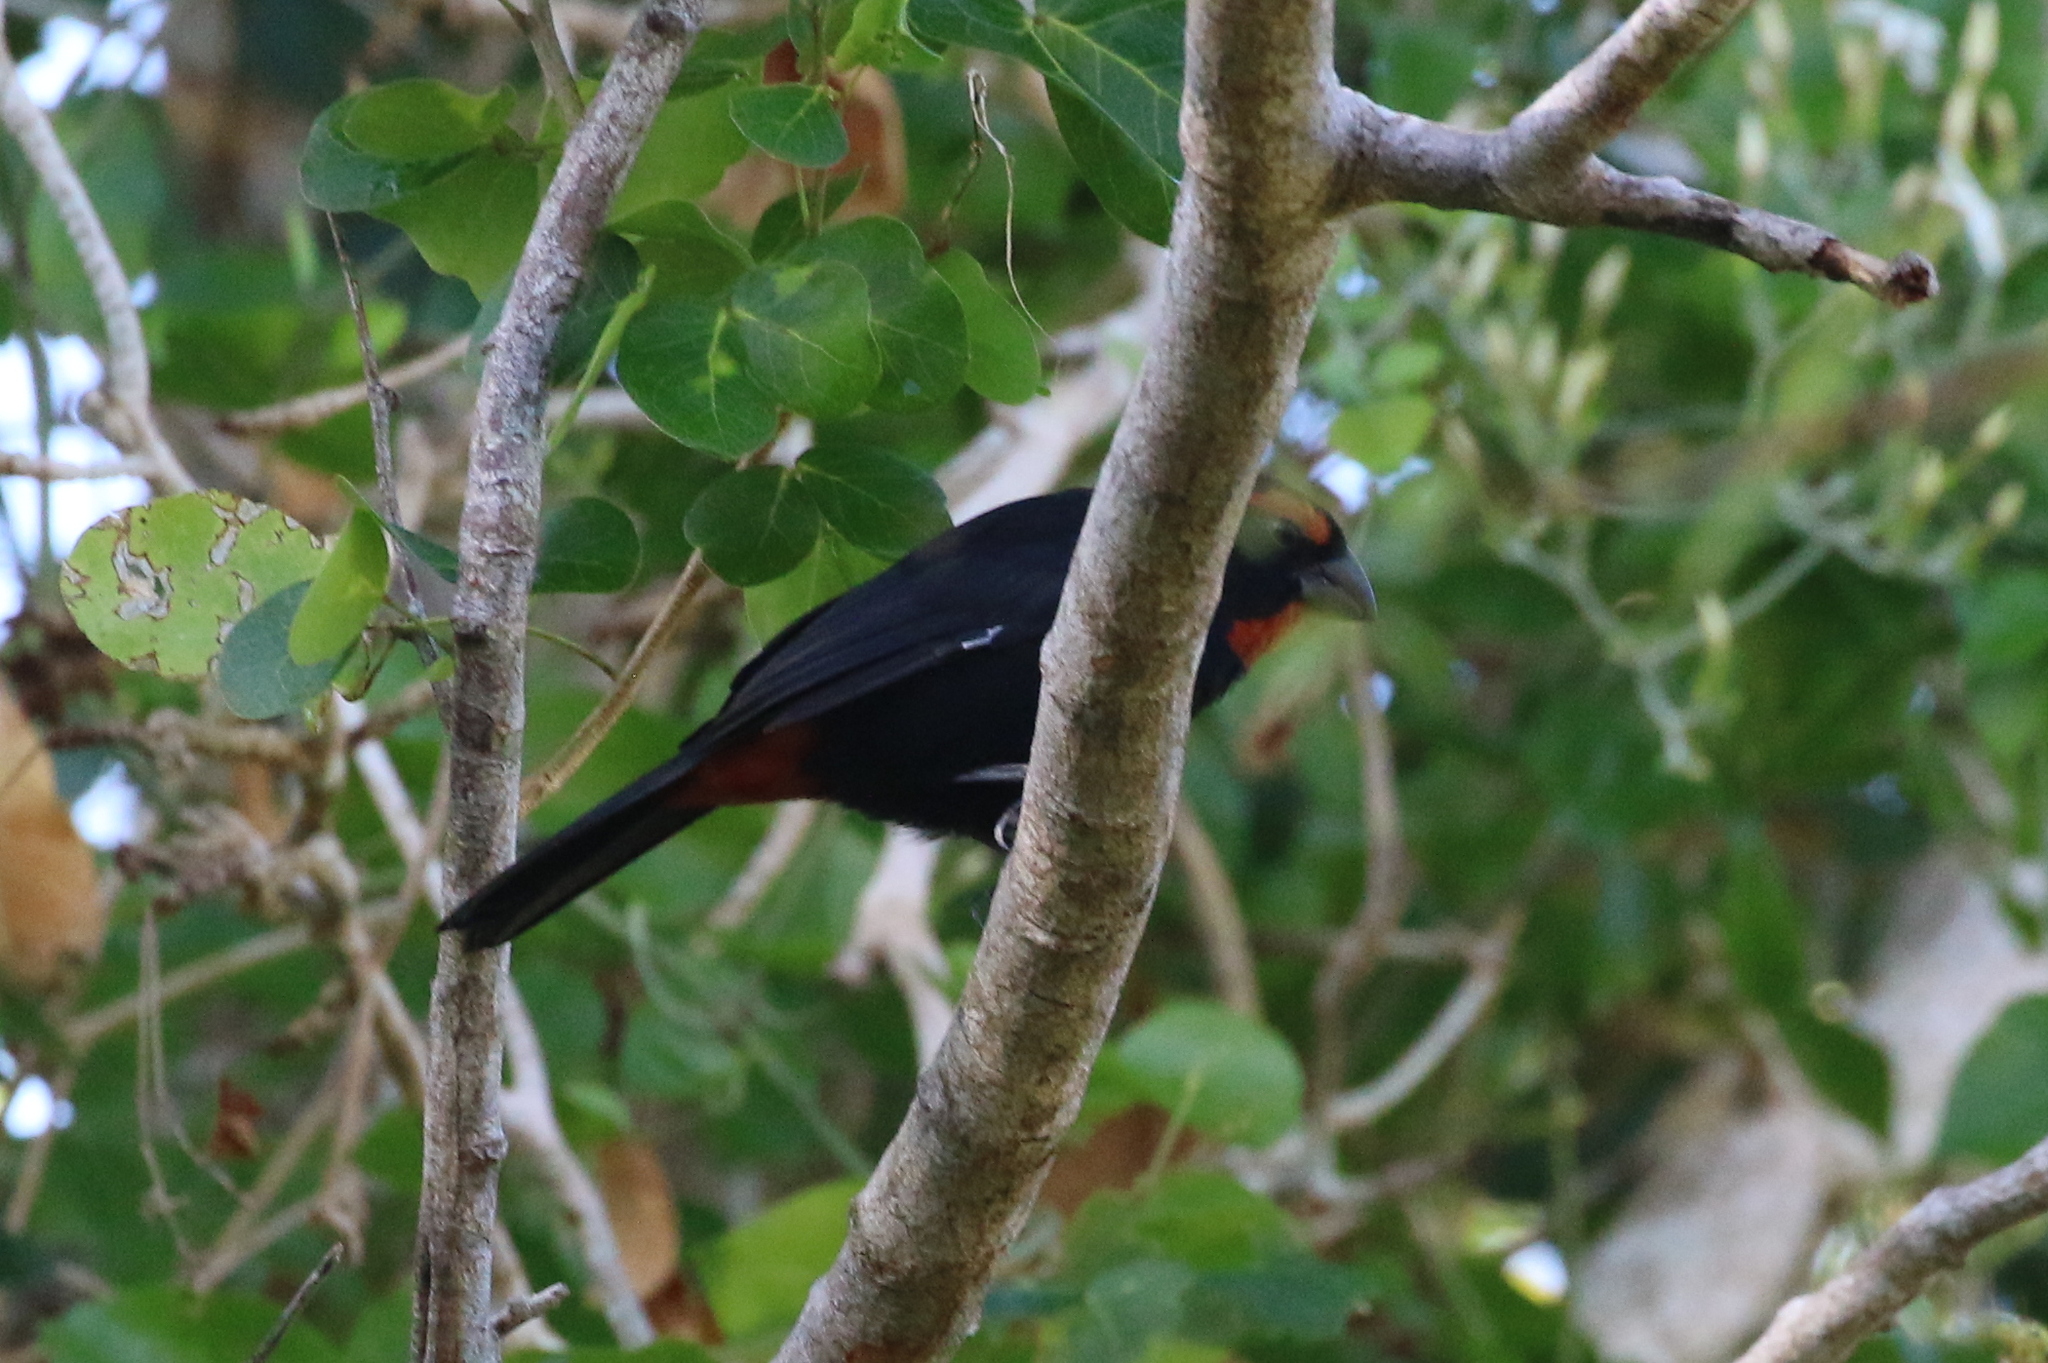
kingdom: Animalia
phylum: Chordata
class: Aves
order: Passeriformes
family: Thraupidae
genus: Melopyrrha
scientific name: Melopyrrha violacea
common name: Greater antillean bullfinch
